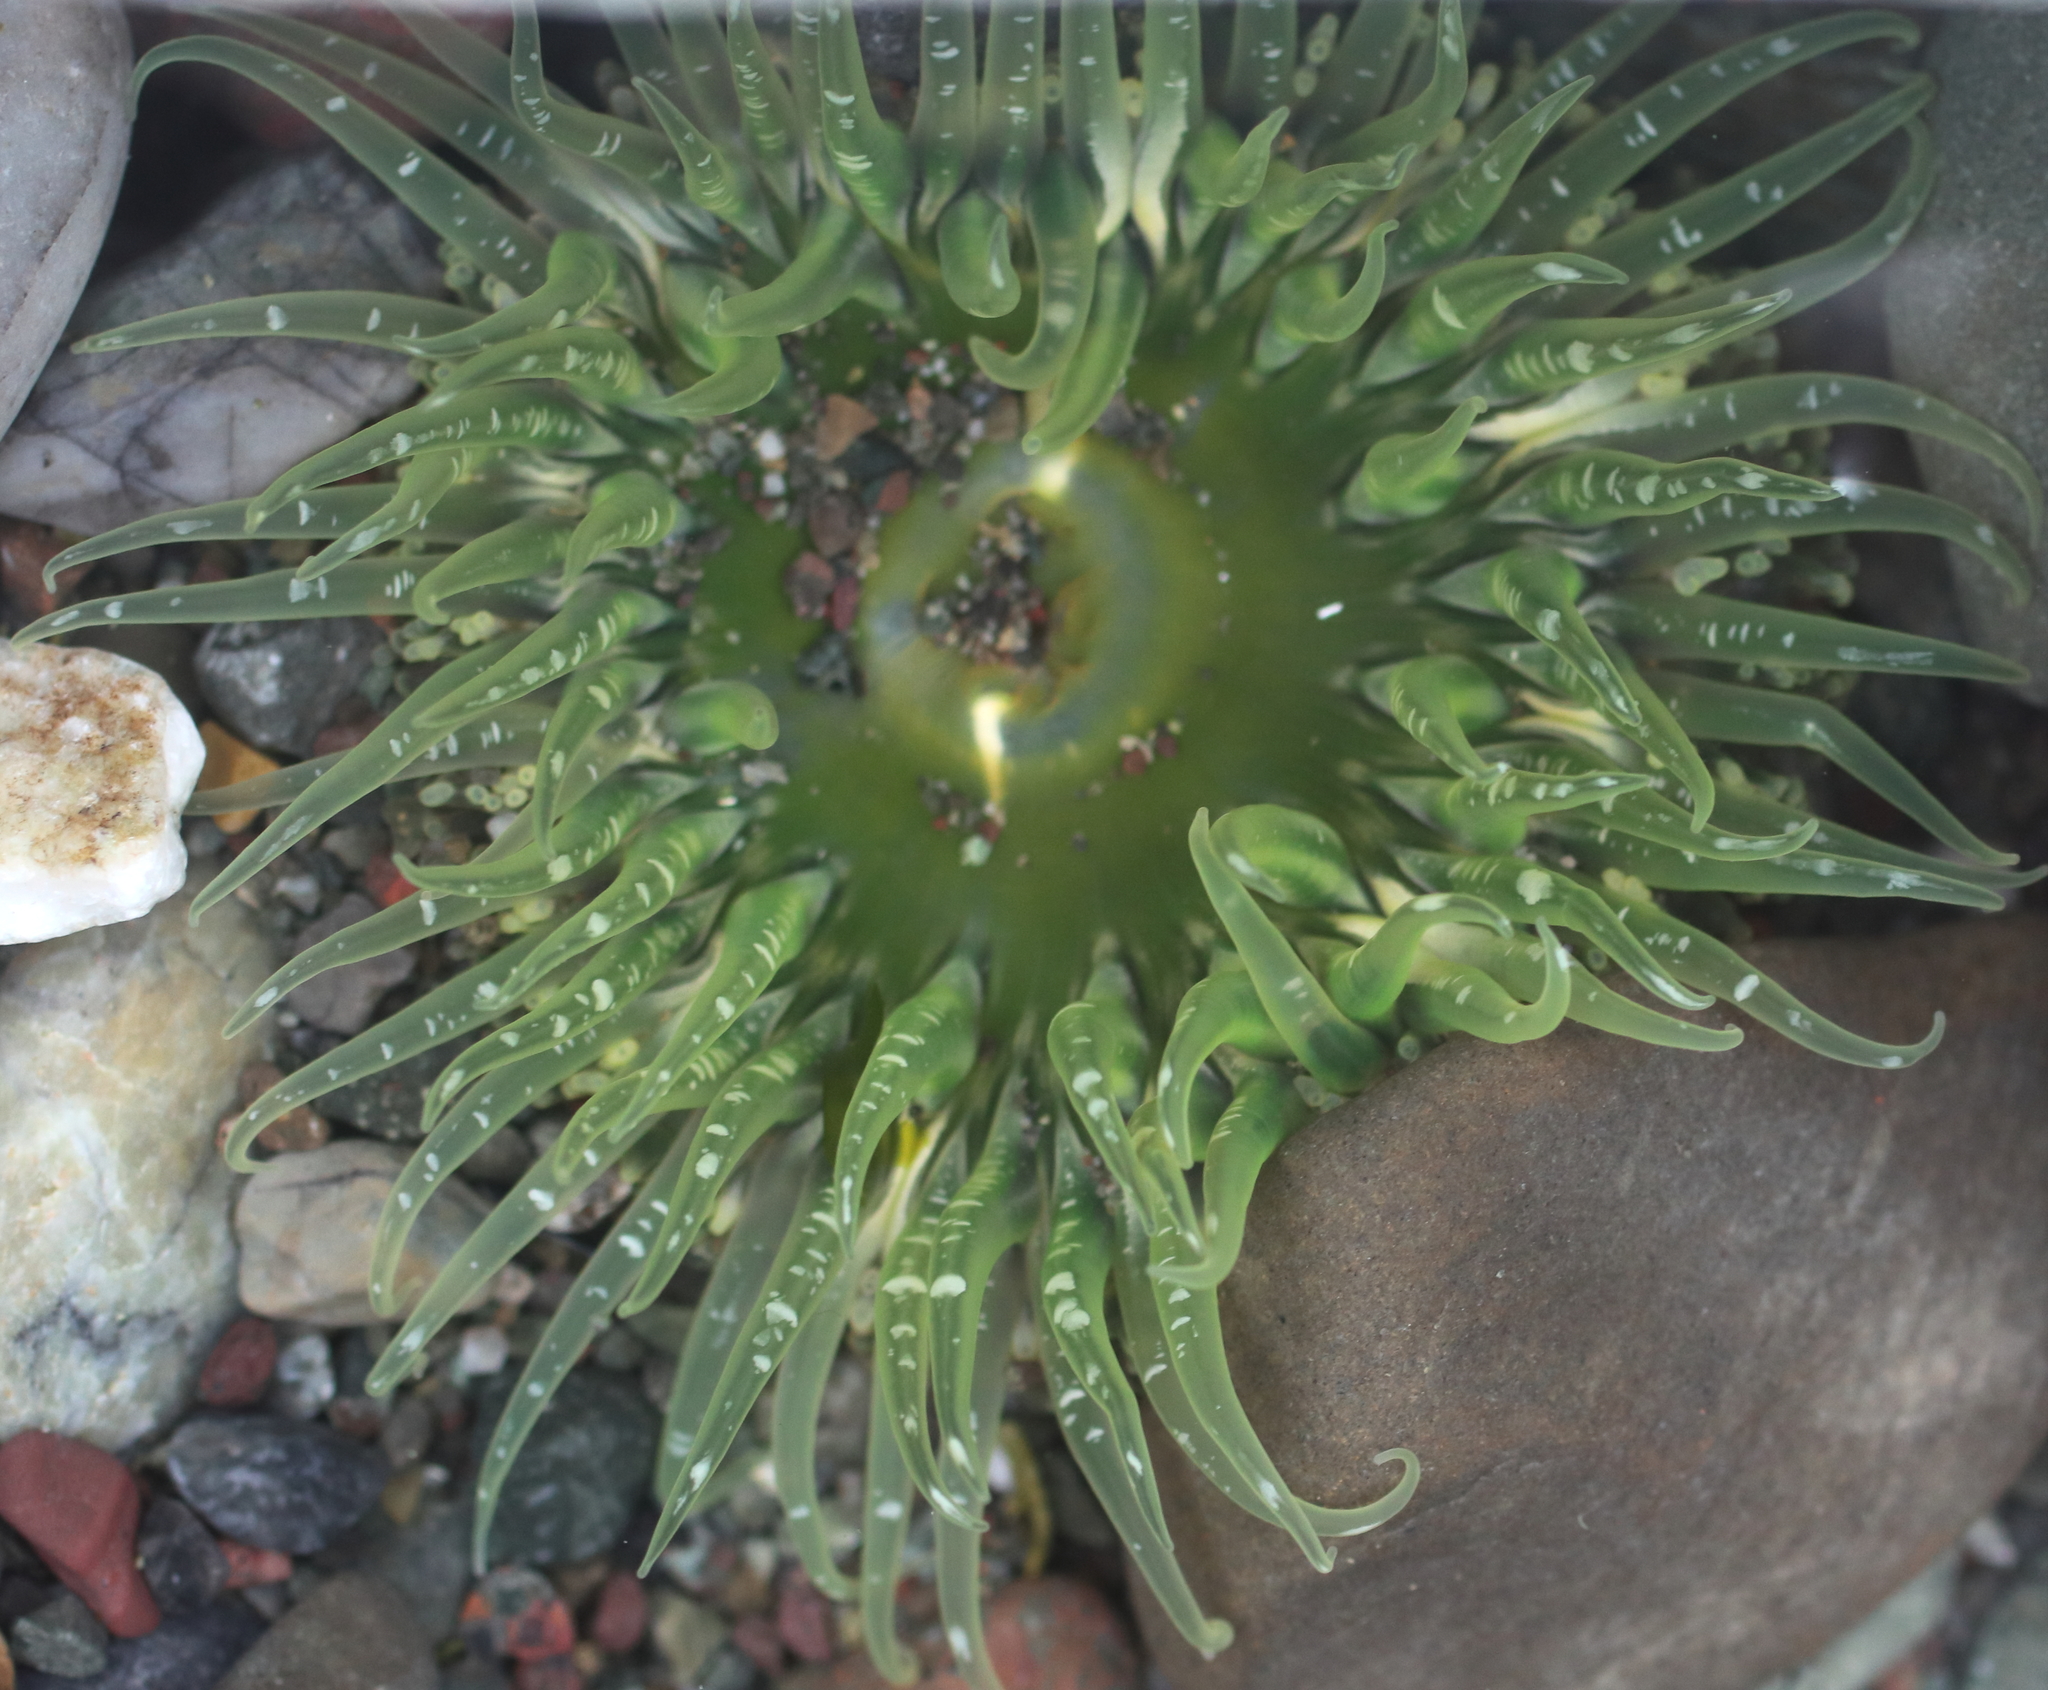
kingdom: Animalia
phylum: Cnidaria
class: Anthozoa
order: Actiniaria
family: Actiniidae
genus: Anthopleura
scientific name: Anthopleura artemisia
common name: Buried sea anemone
